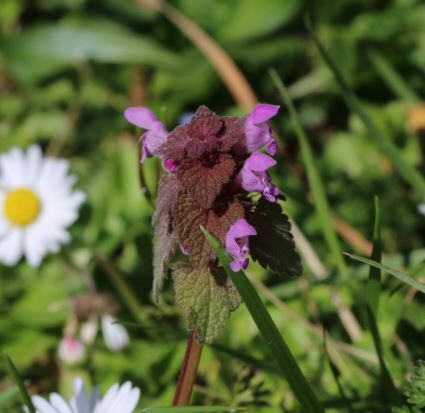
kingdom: Plantae
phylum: Tracheophyta
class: Magnoliopsida
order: Lamiales
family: Lamiaceae
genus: Lamium
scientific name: Lamium purpureum
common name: Red dead-nettle
